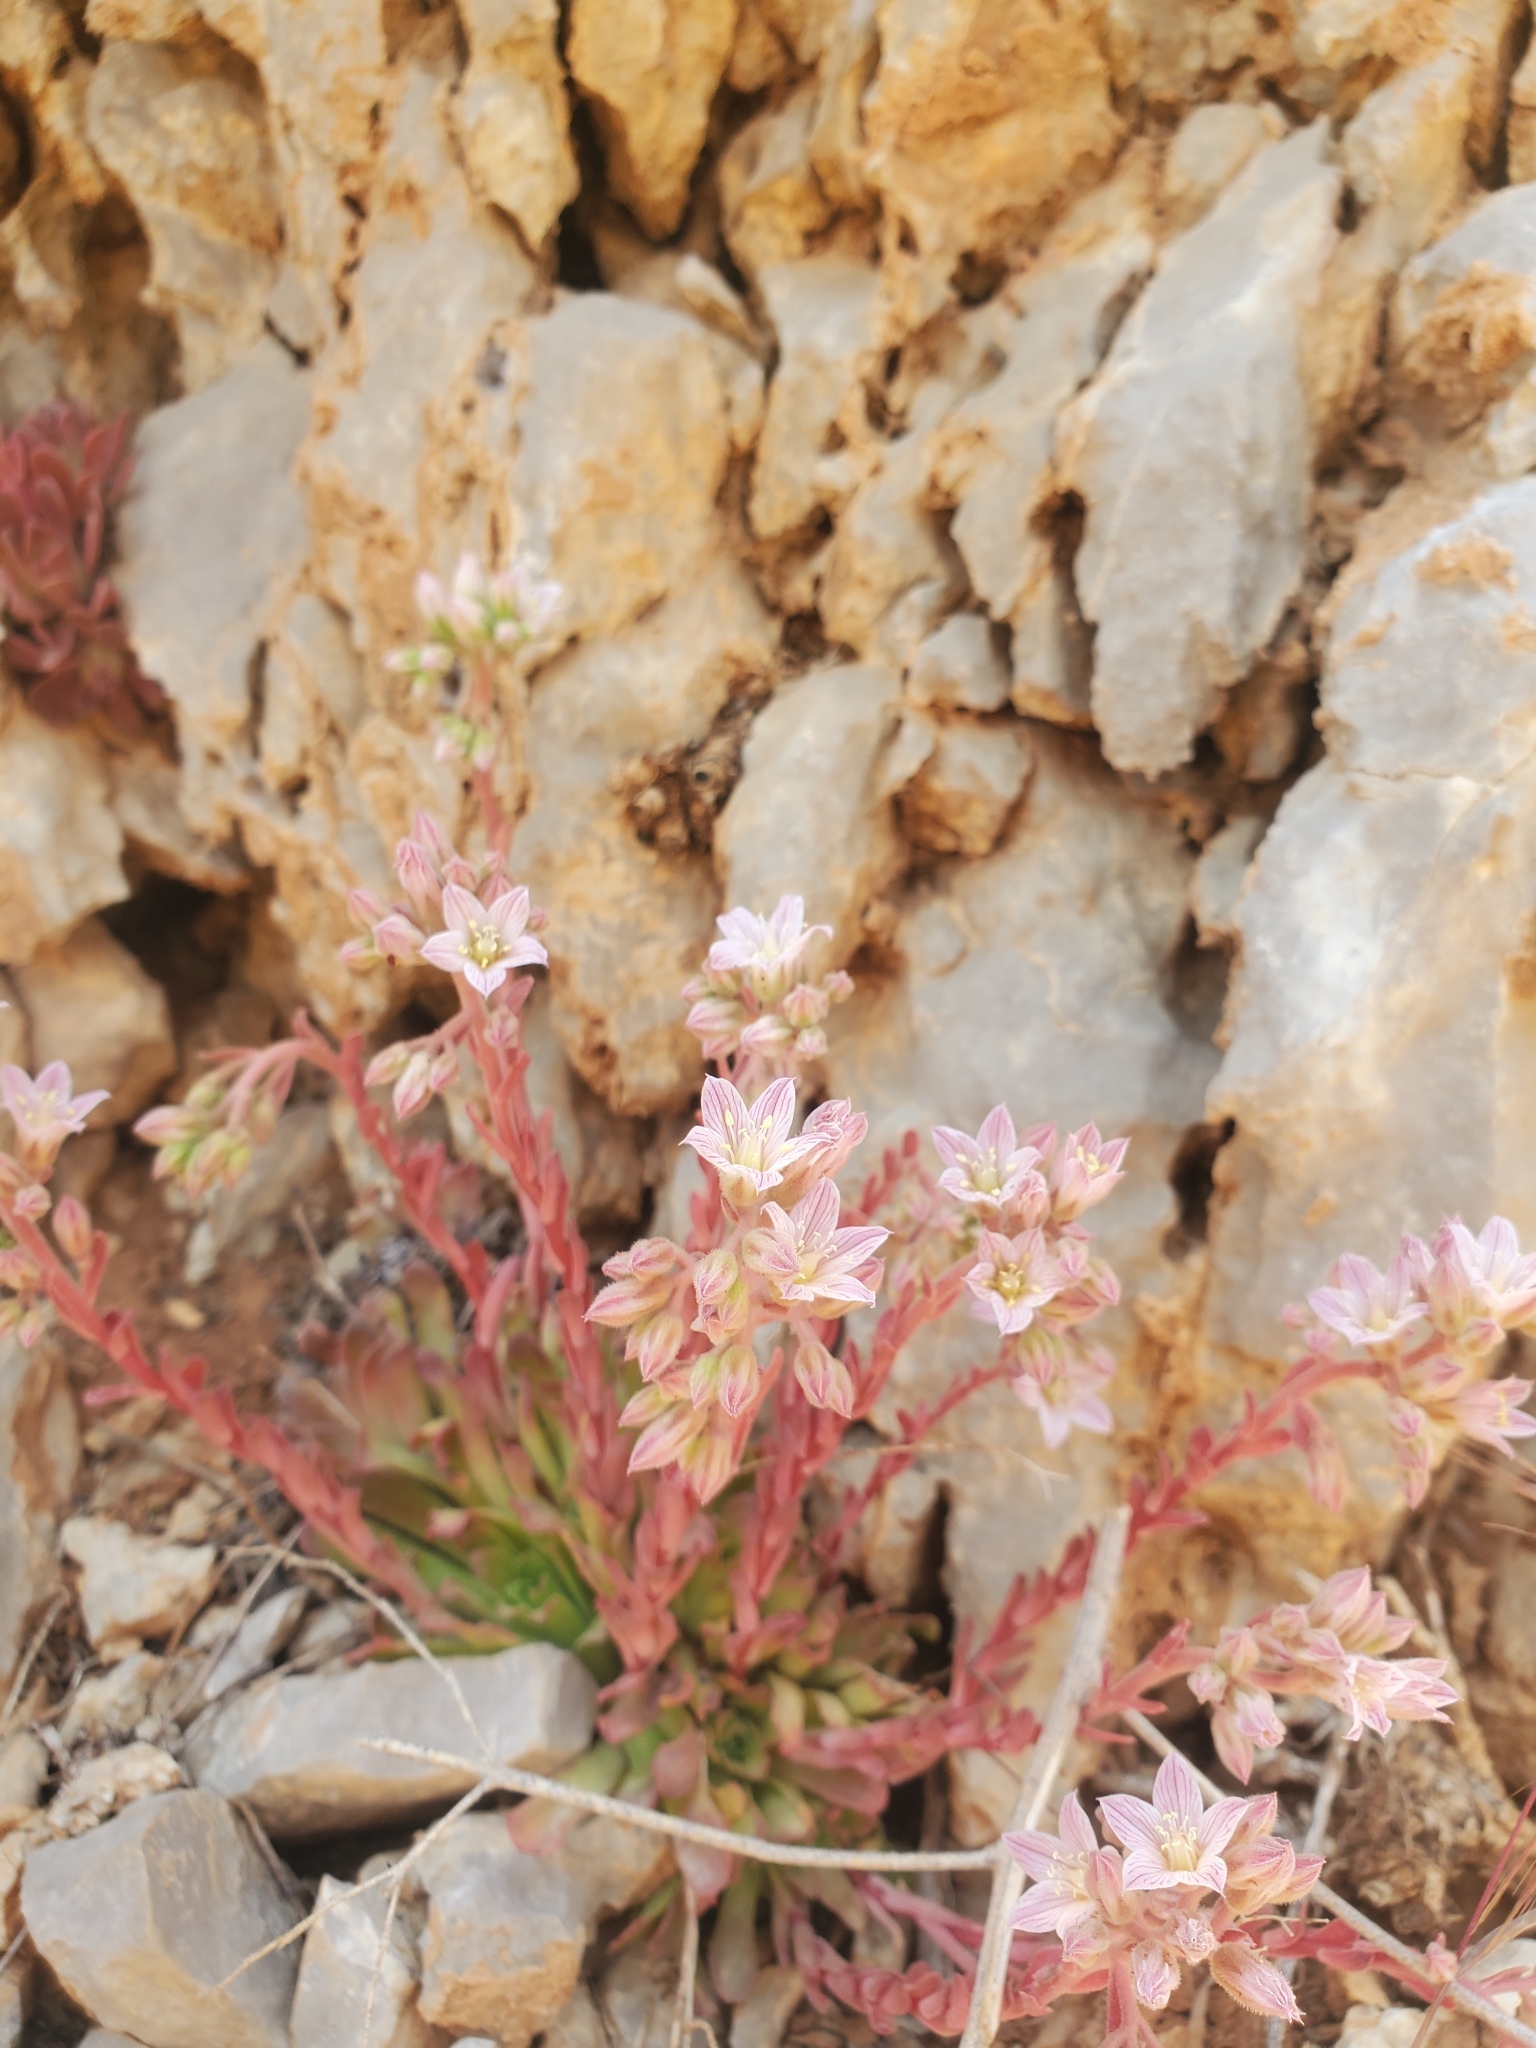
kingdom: Plantae
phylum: Tracheophyta
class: Magnoliopsida
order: Saxifragales
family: Crassulaceae
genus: Rosularia
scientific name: Rosularia
